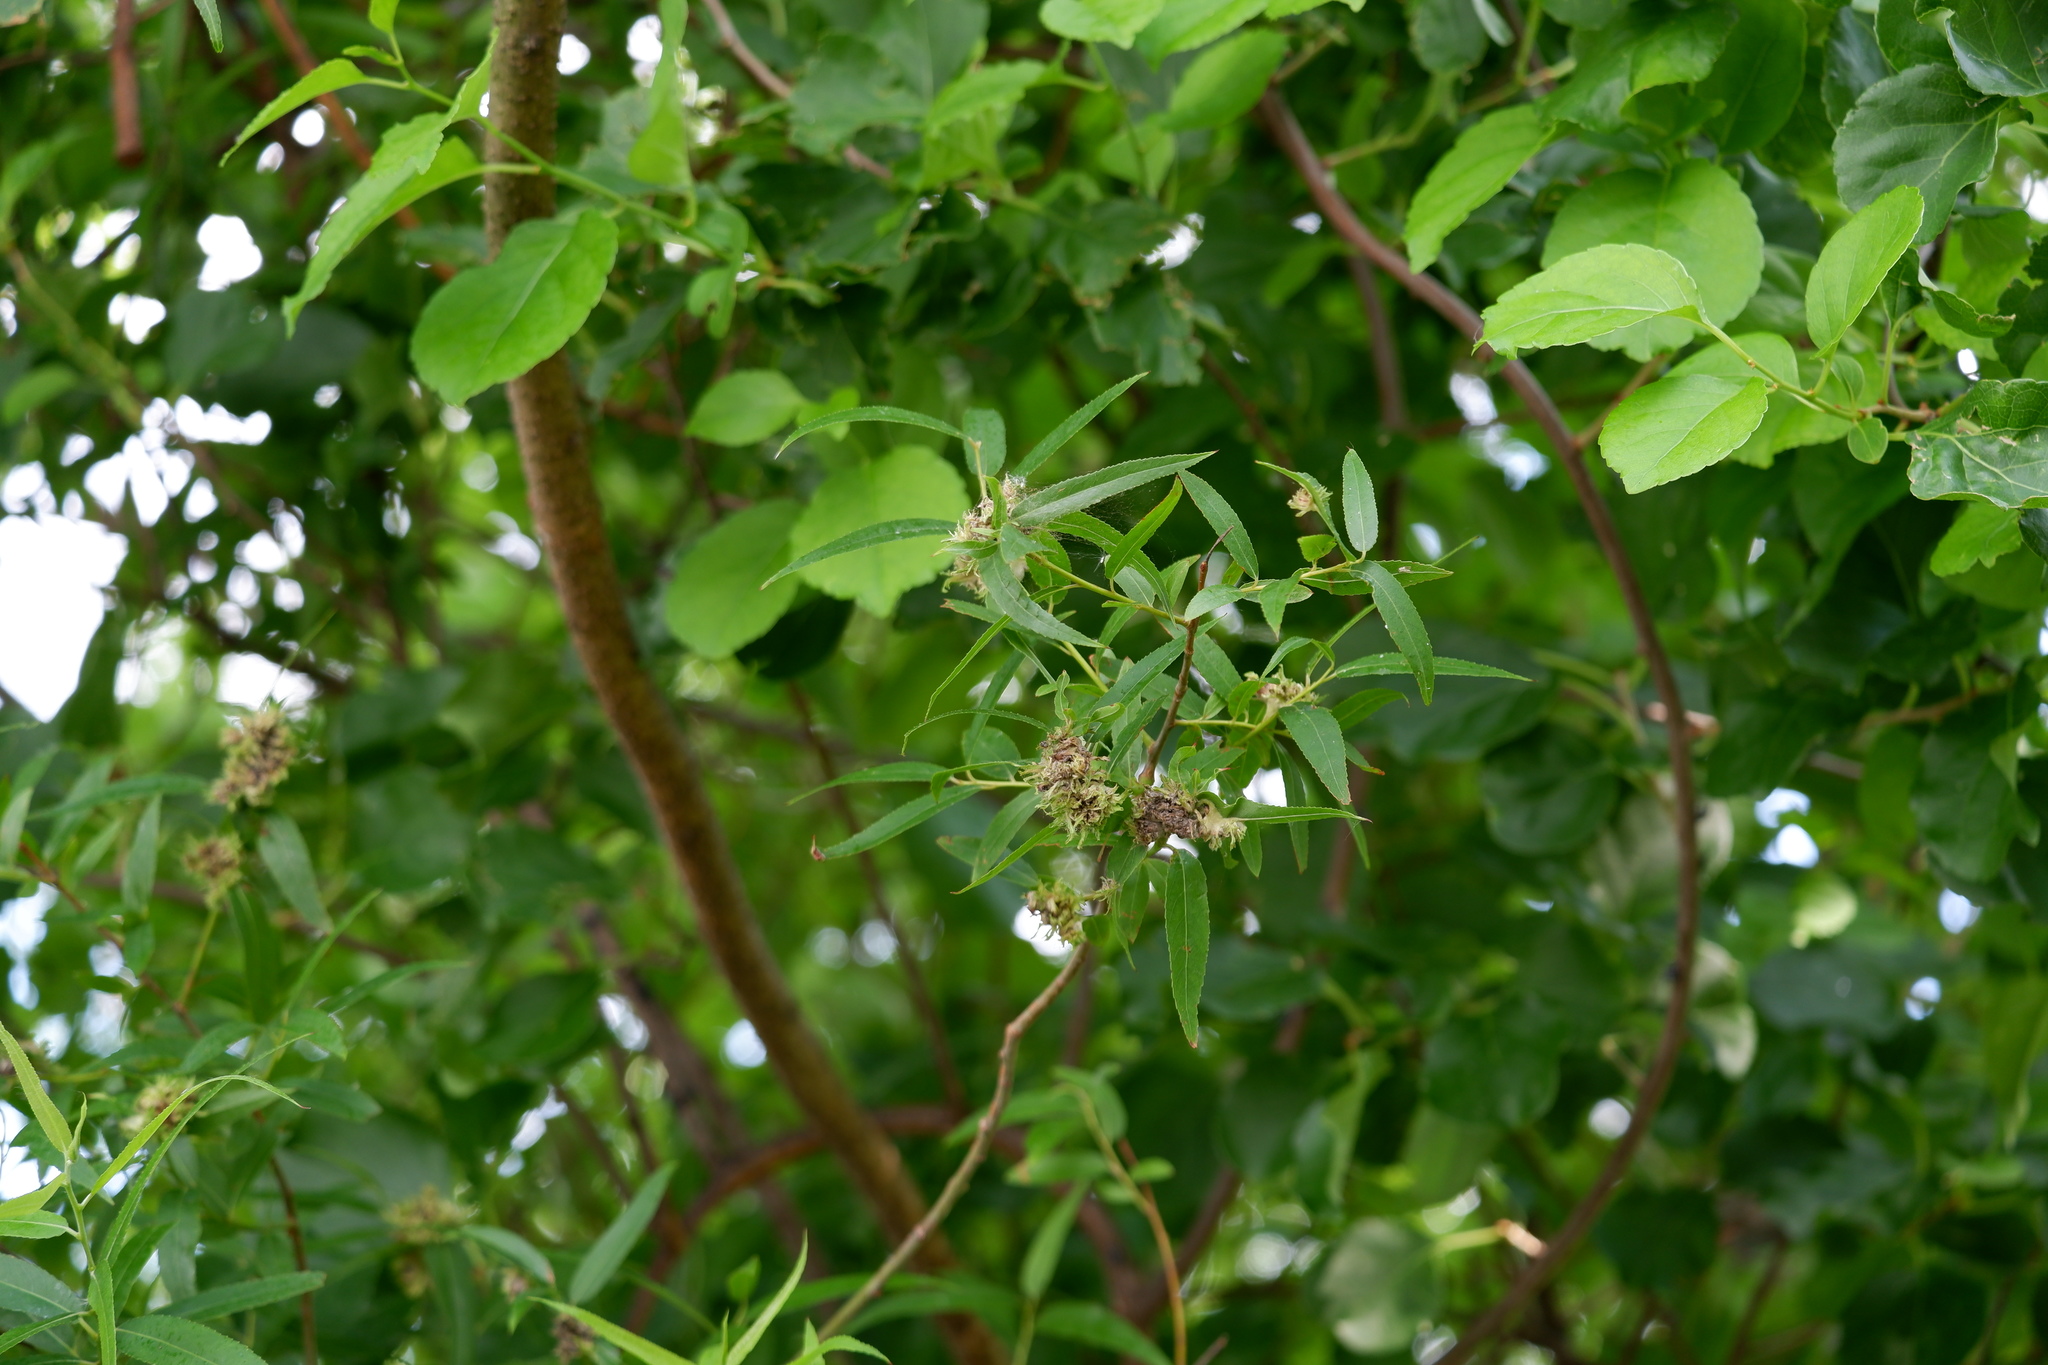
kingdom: Animalia
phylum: Arthropoda
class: Arachnida
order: Trombidiformes
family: Eriophyidae
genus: Aculops
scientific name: Aculops
